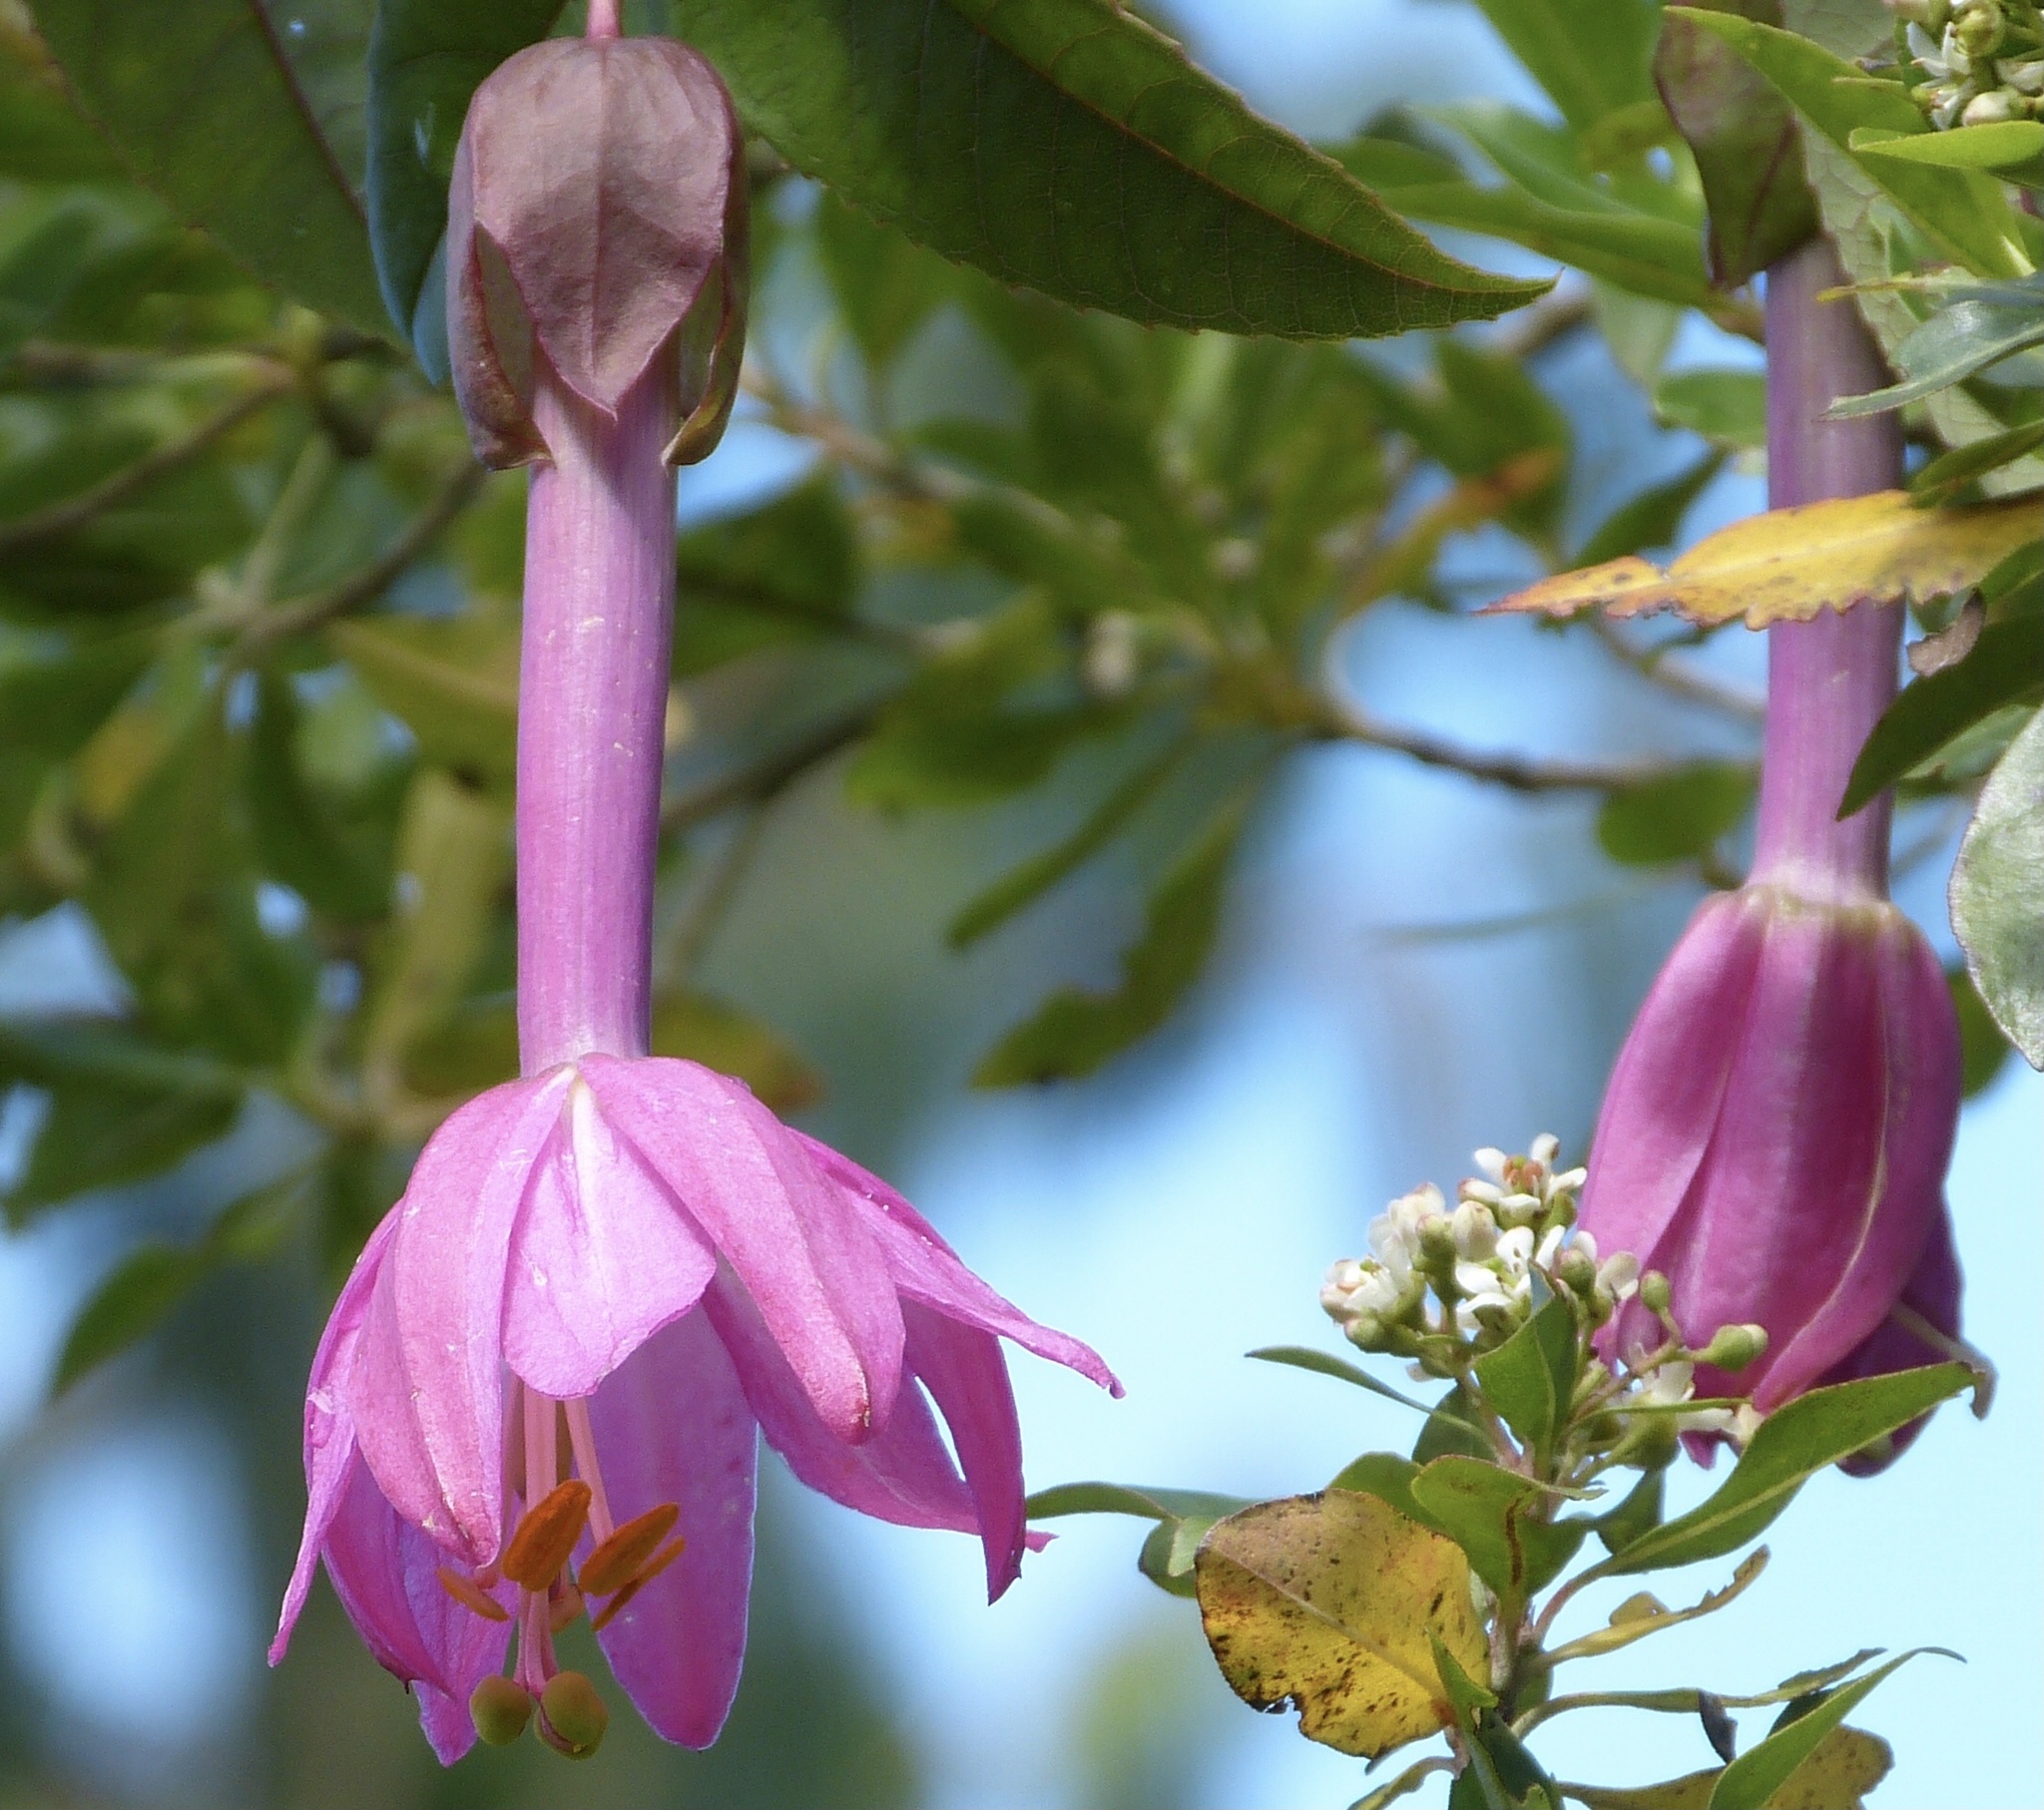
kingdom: Plantae
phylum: Tracheophyta
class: Magnoliopsida
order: Malpighiales
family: Passifloraceae
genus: Passiflora
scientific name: Passiflora cumbalensis
